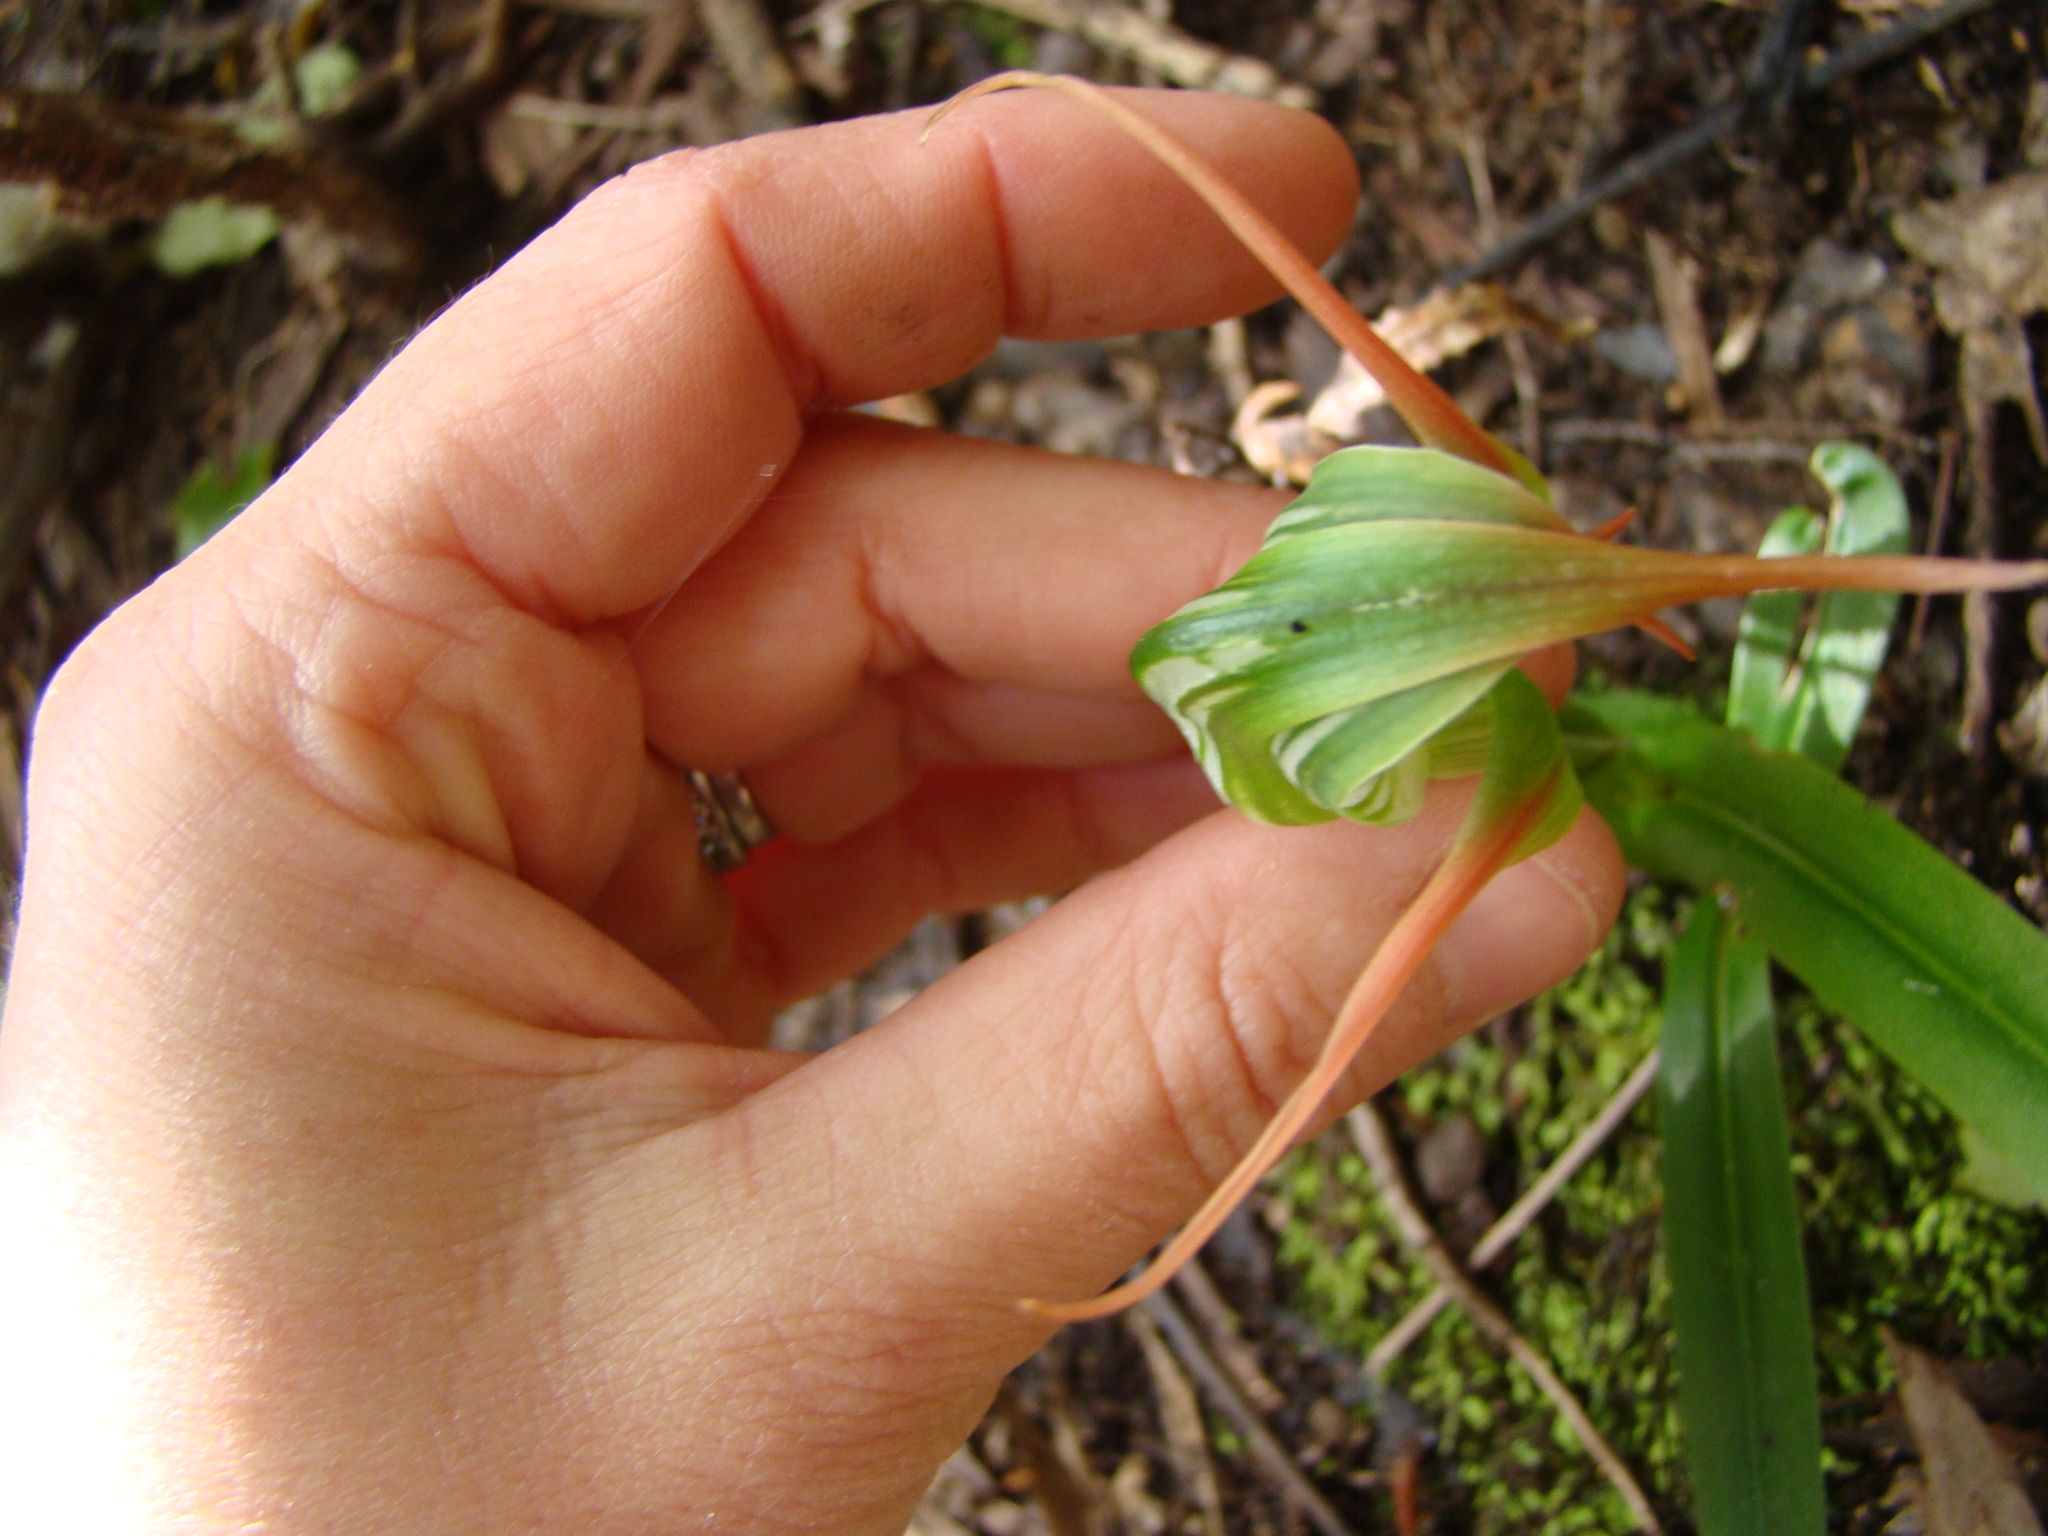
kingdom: Plantae
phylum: Tracheophyta
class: Liliopsida
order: Asparagales
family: Orchidaceae
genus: Pterostylis
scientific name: Pterostylis banksii
